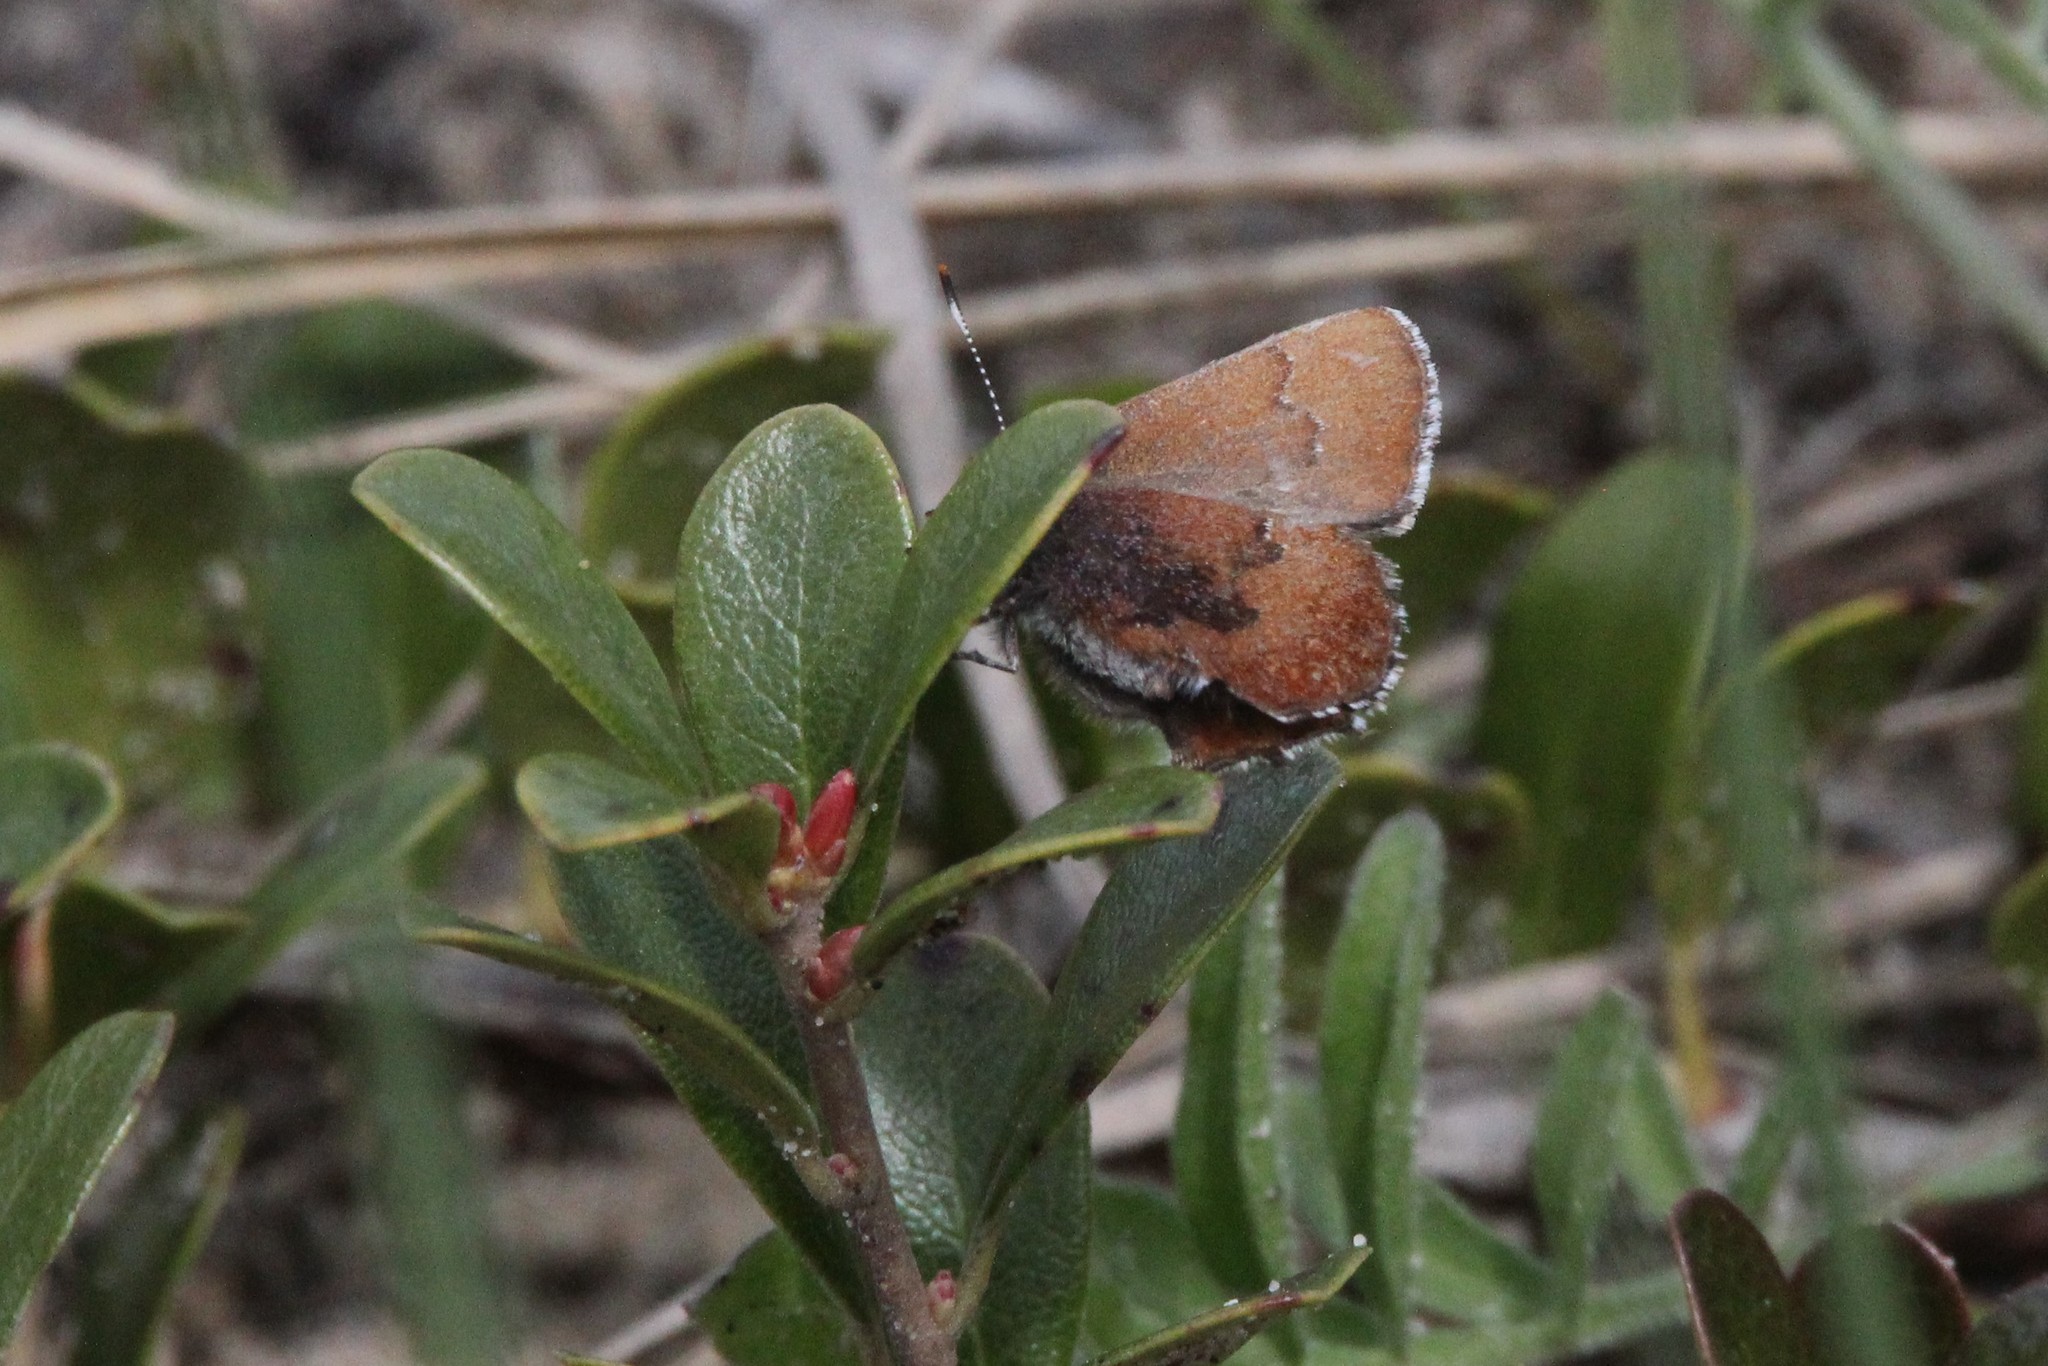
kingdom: Animalia
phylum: Arthropoda
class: Insecta
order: Lepidoptera
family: Lycaenidae
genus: Incisalia
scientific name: Incisalia irioides
